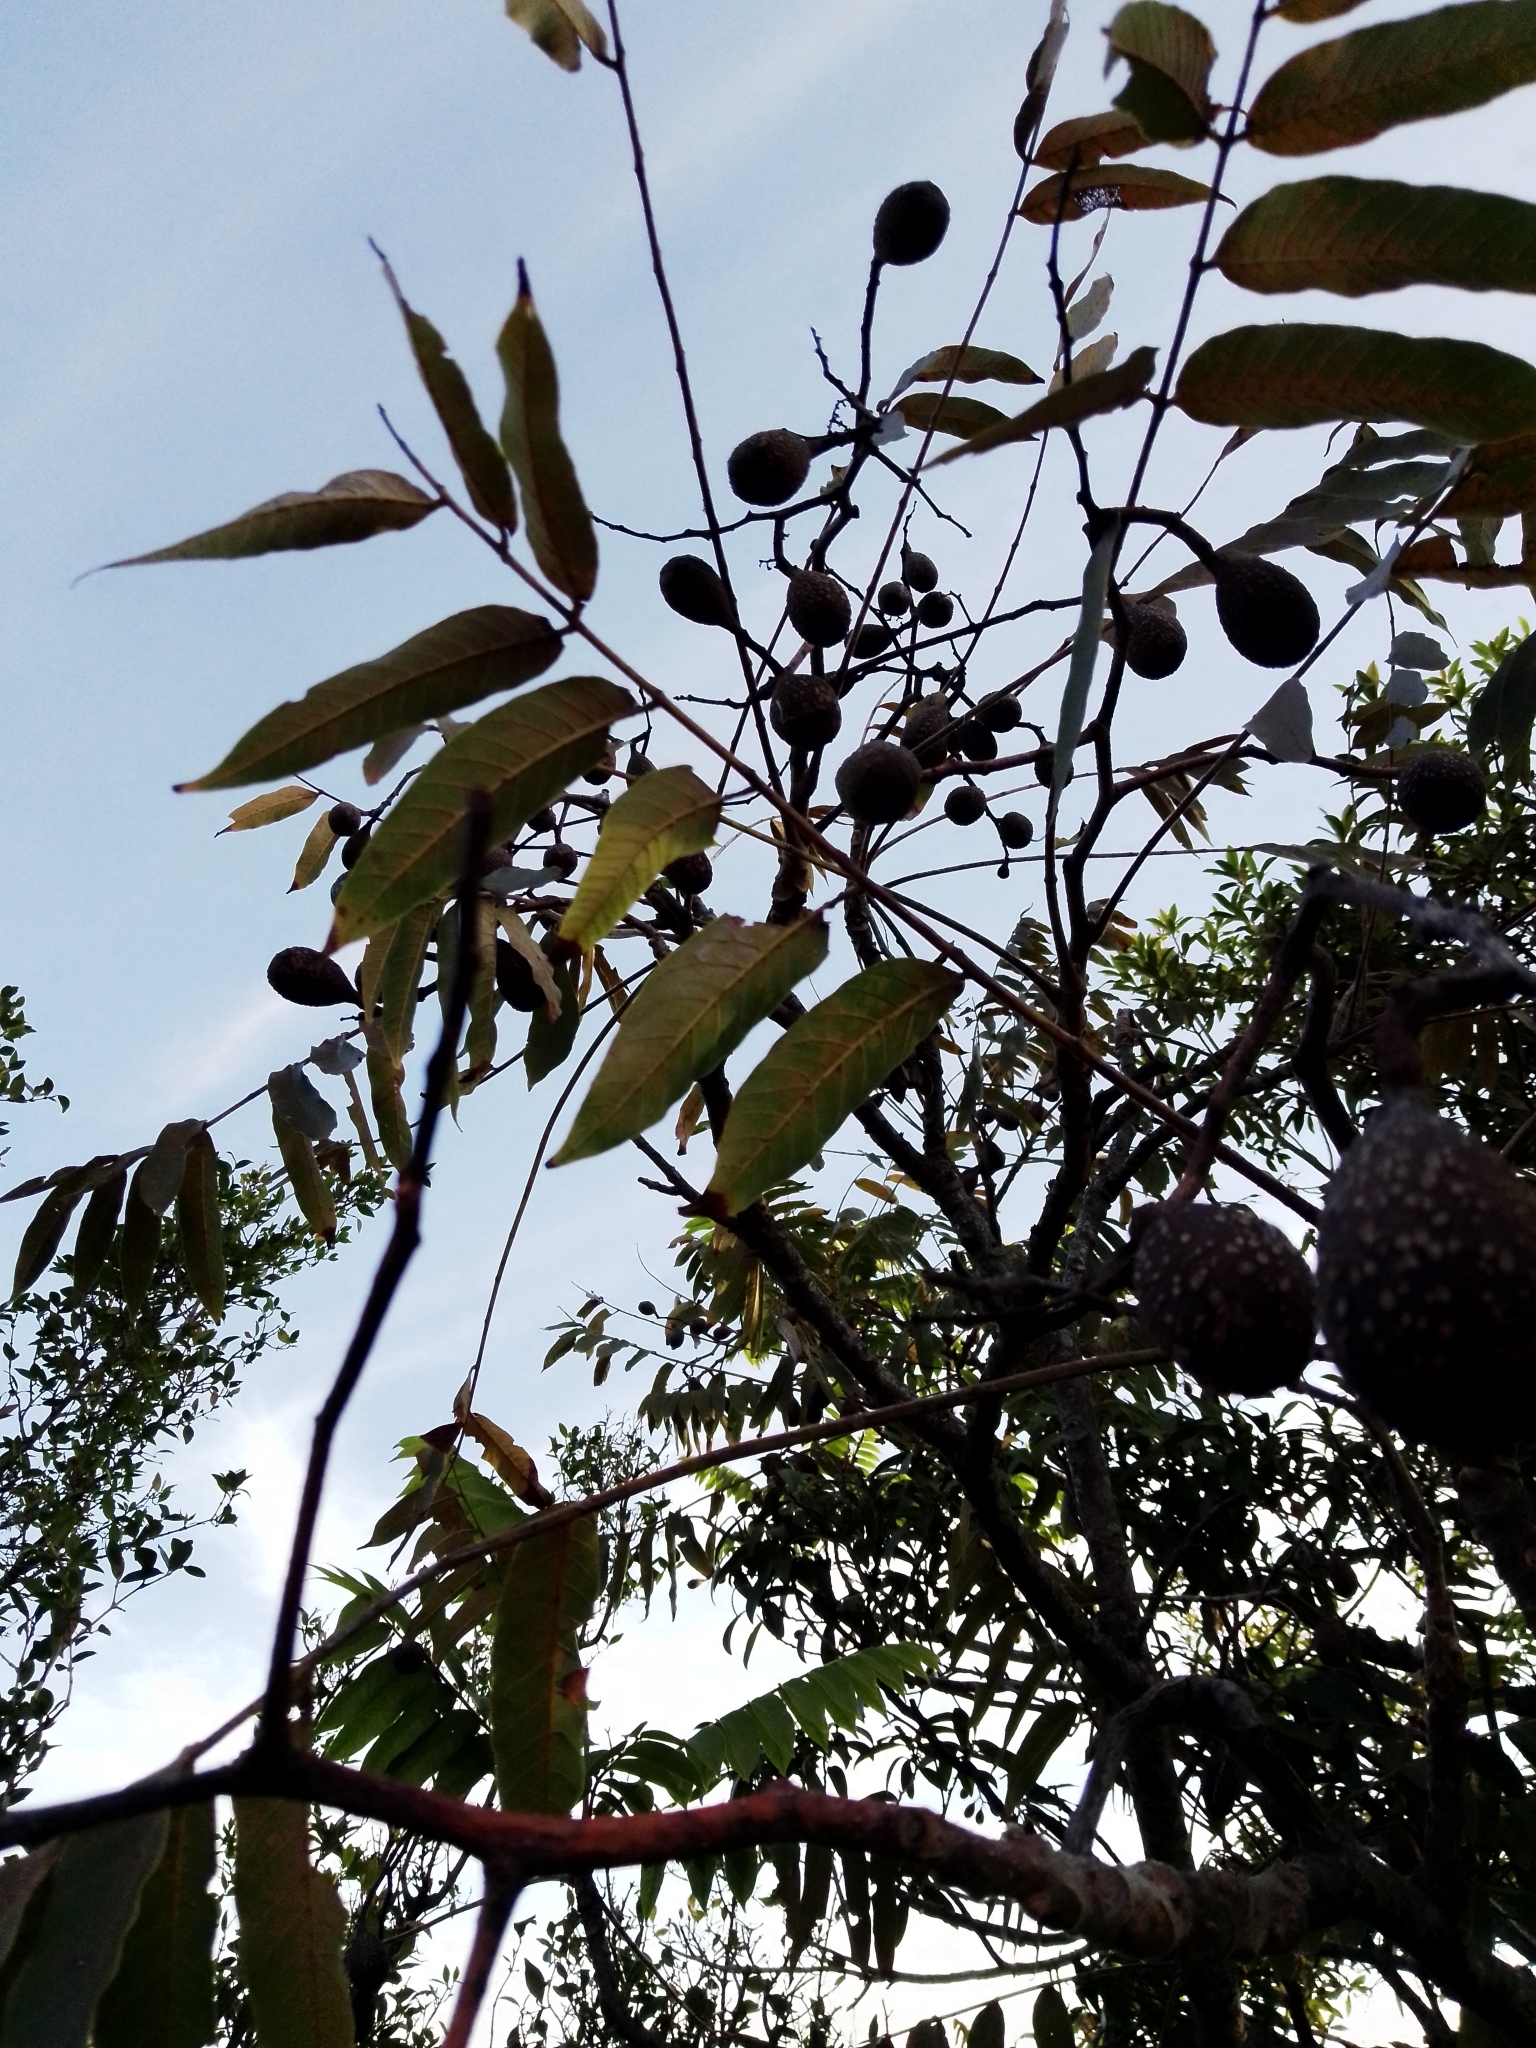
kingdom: Plantae
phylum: Tracheophyta
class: Magnoliopsida
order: Sapindales
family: Meliaceae
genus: Cedrela
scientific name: Cedrela fissilis
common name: Argentine cedar
